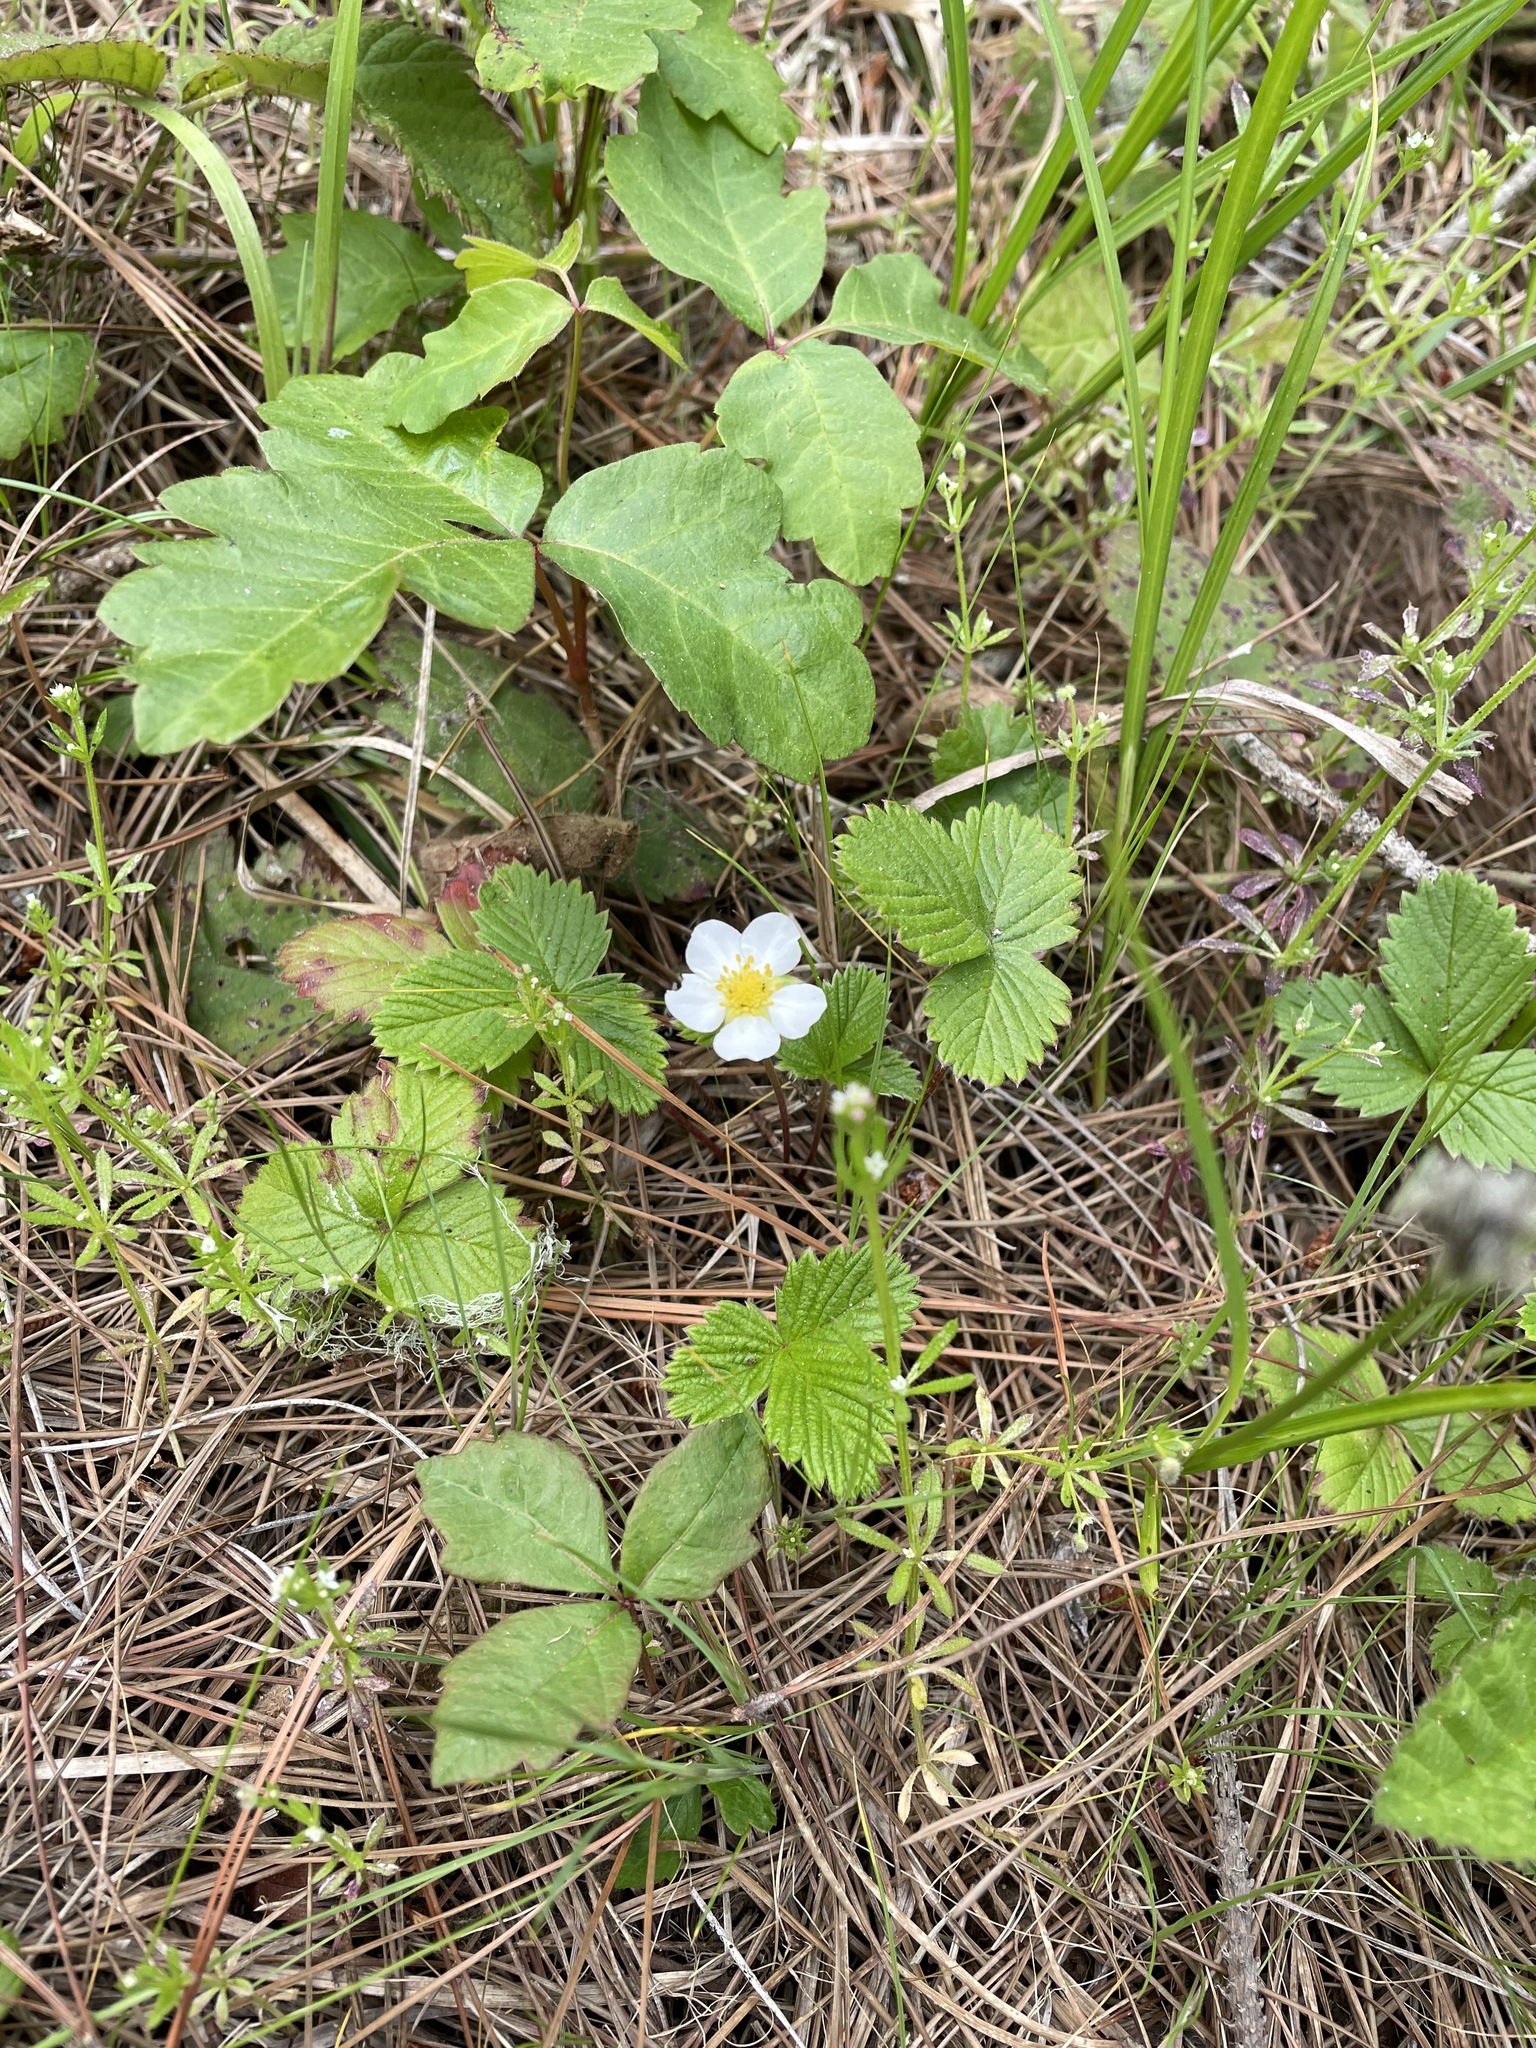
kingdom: Plantae
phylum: Tracheophyta
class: Magnoliopsida
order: Rosales
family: Rosaceae
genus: Fragaria
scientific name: Fragaria vesca
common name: Wild strawberry
